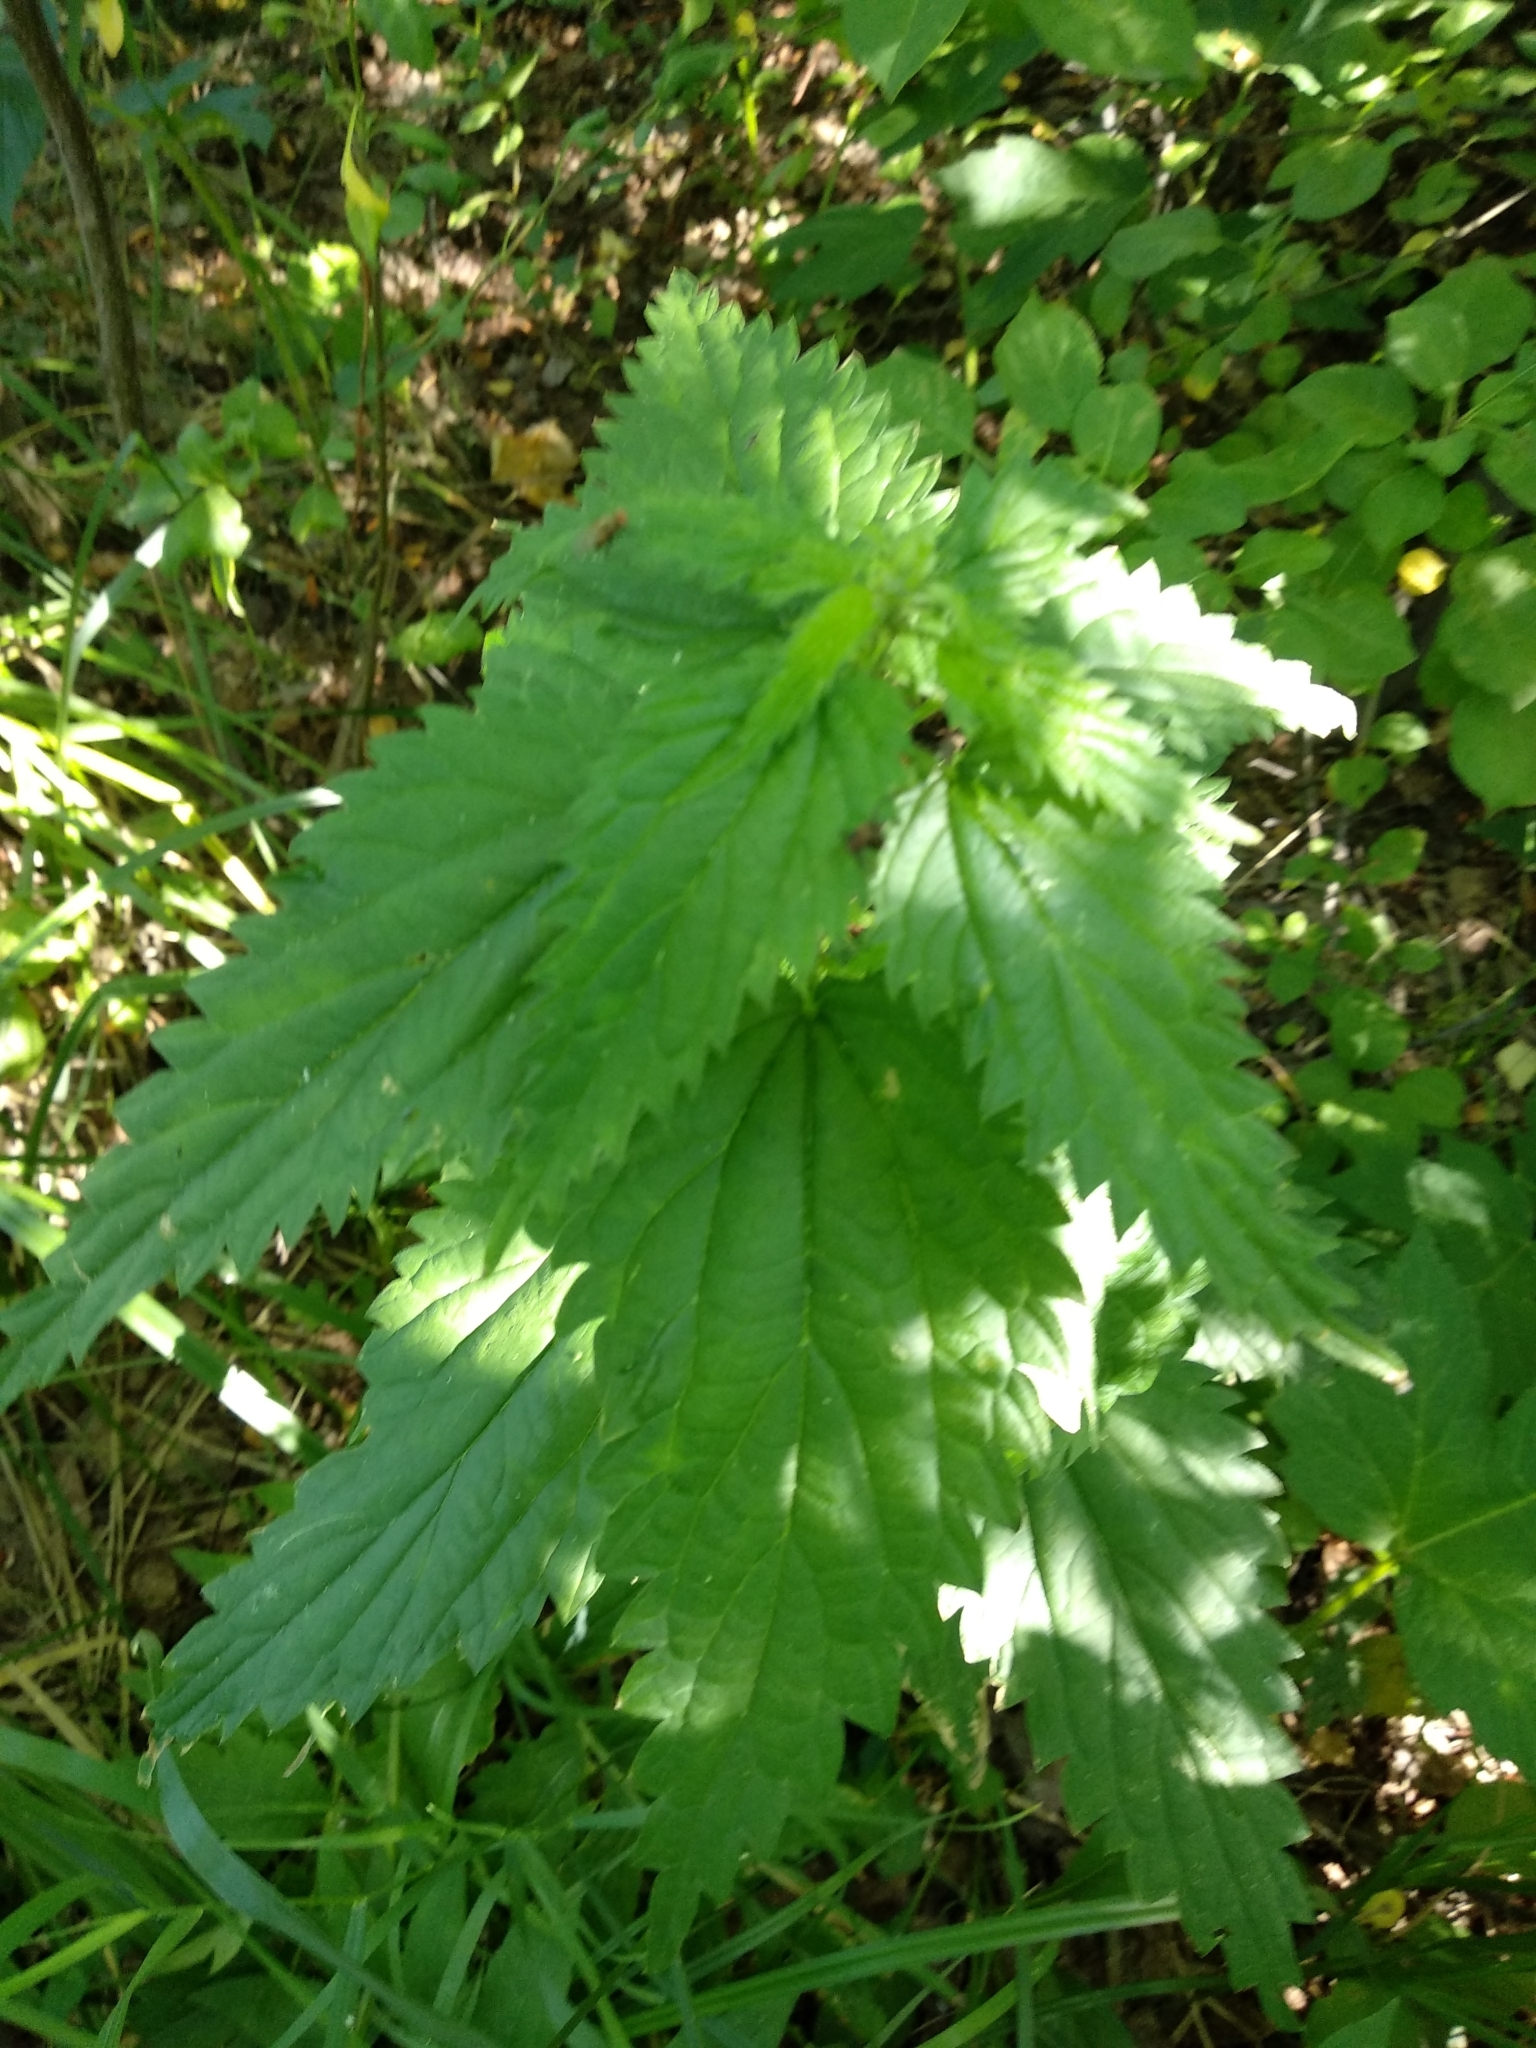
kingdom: Plantae
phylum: Tracheophyta
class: Magnoliopsida
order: Rosales
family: Urticaceae
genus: Urtica
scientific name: Urtica dioica
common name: Common nettle
